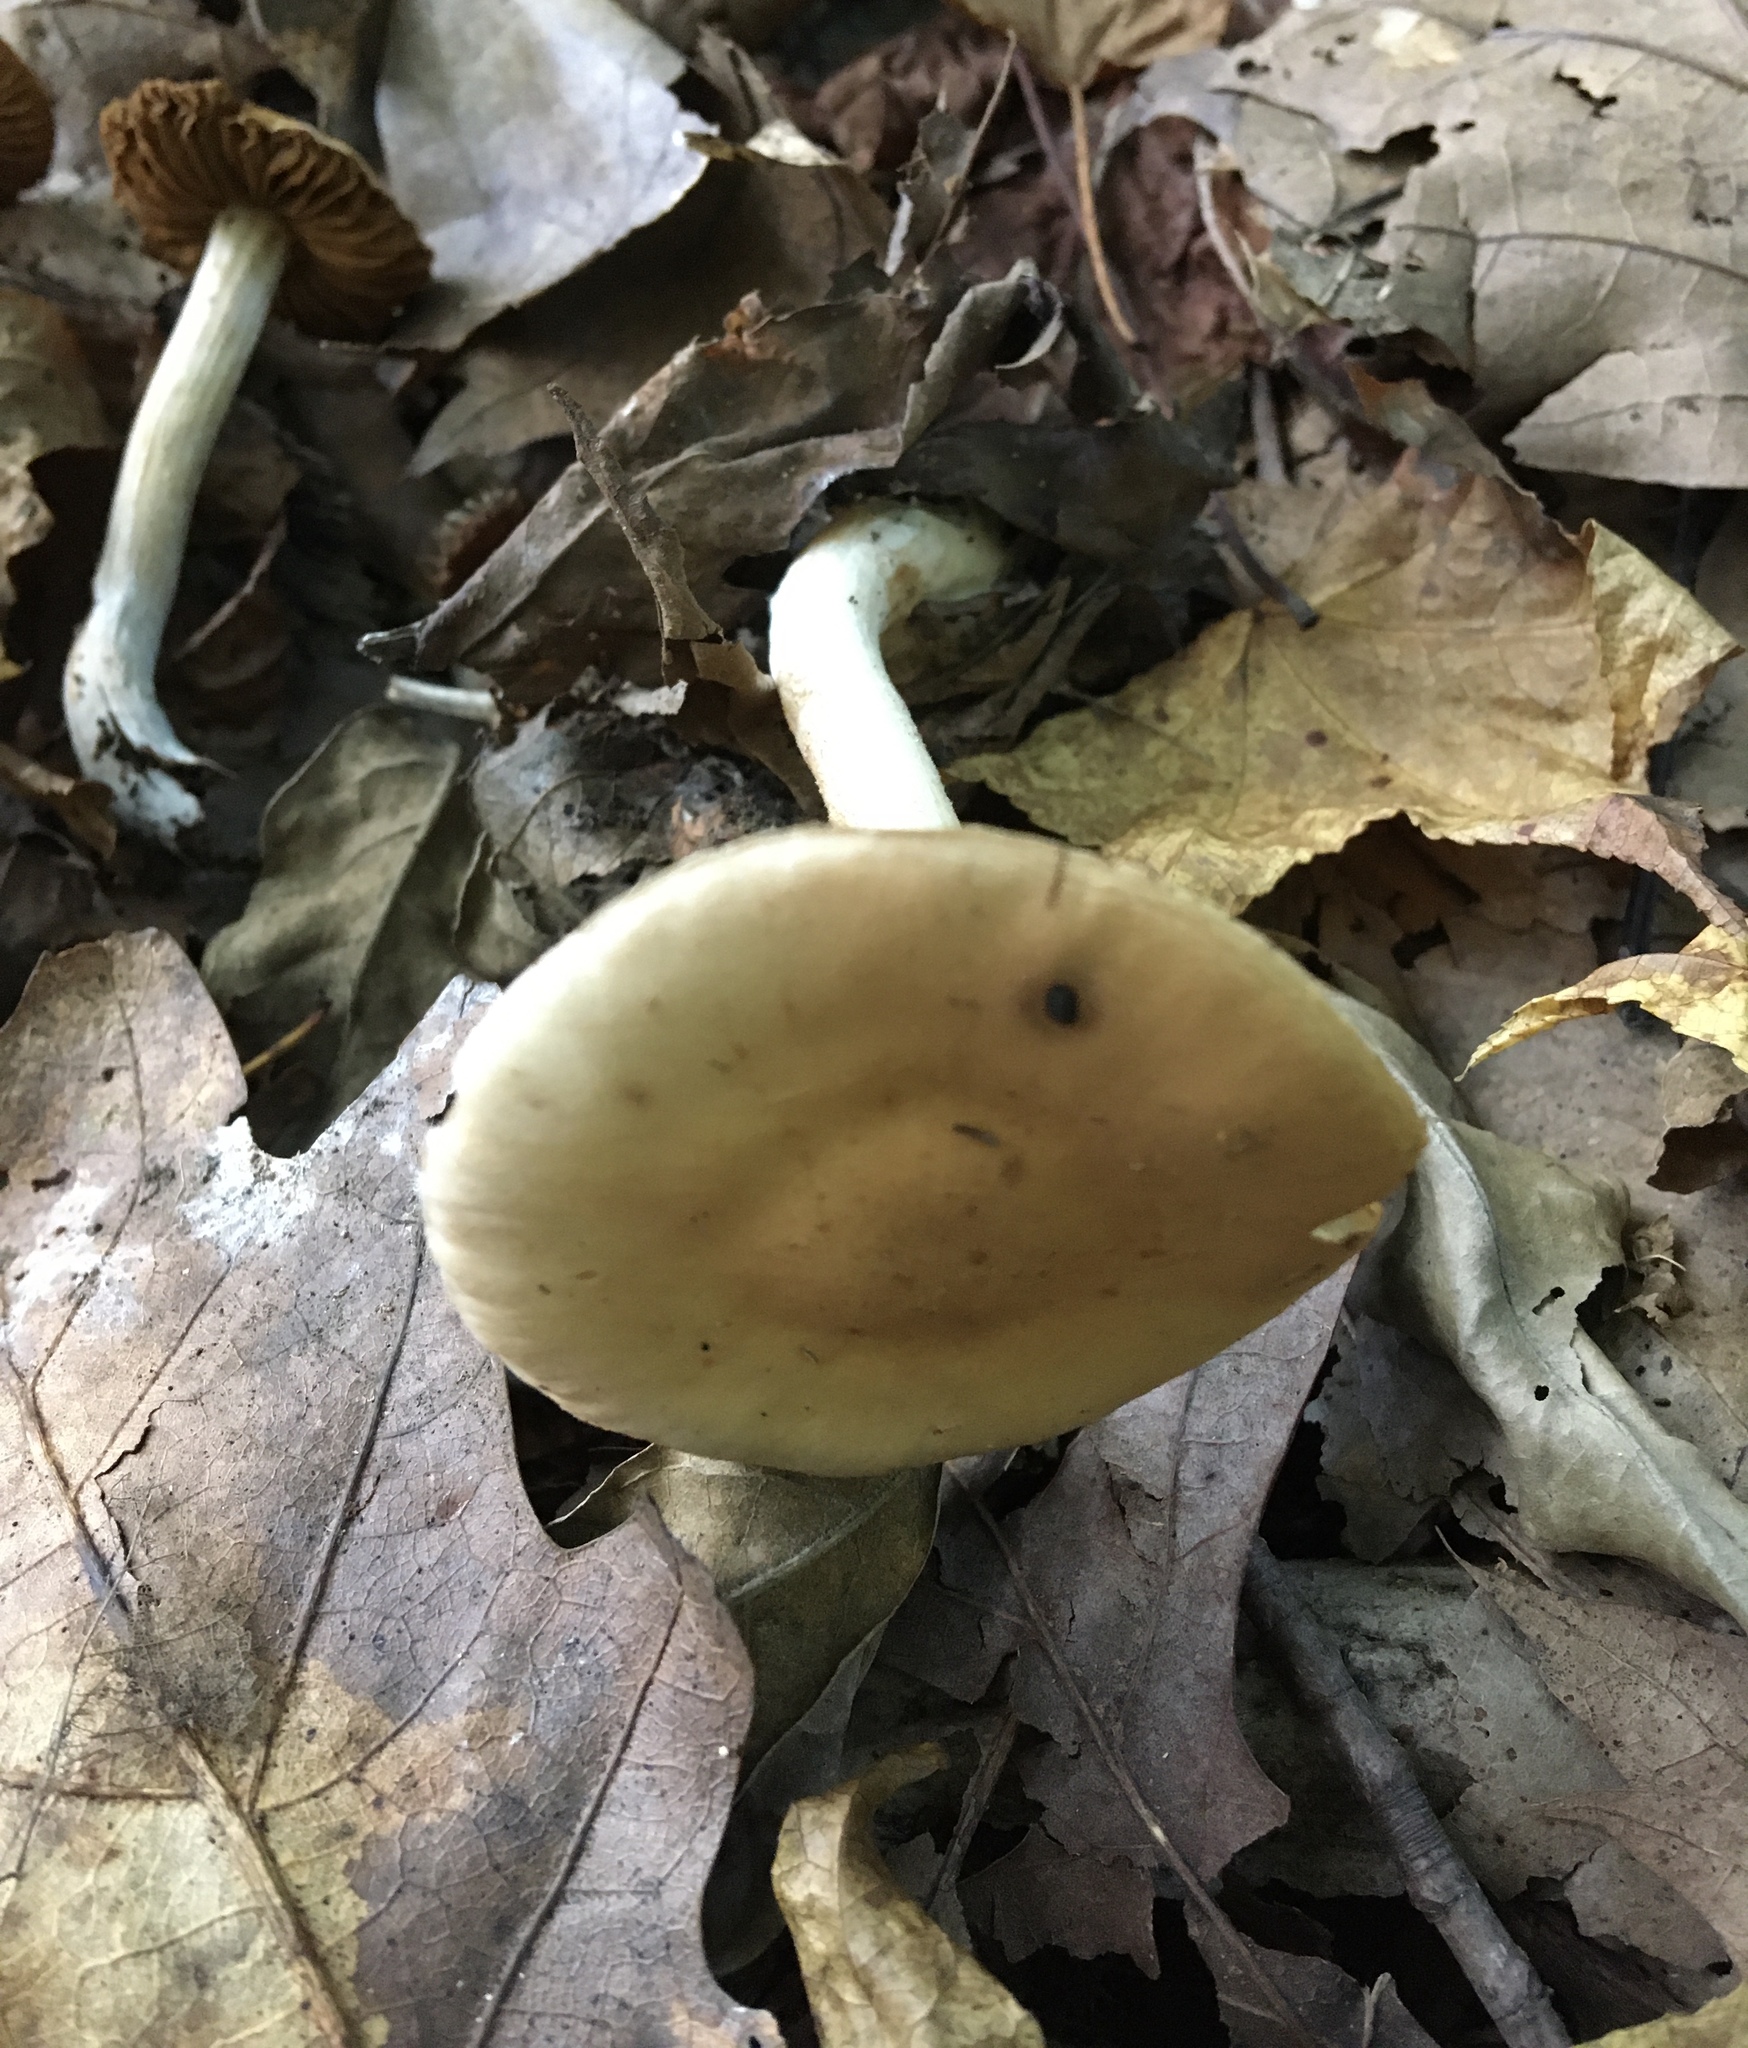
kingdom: Fungi
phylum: Basidiomycota
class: Agaricomycetes
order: Agaricales
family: Hymenogastraceae
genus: Hebeloma
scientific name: Hebeloma albidulum
